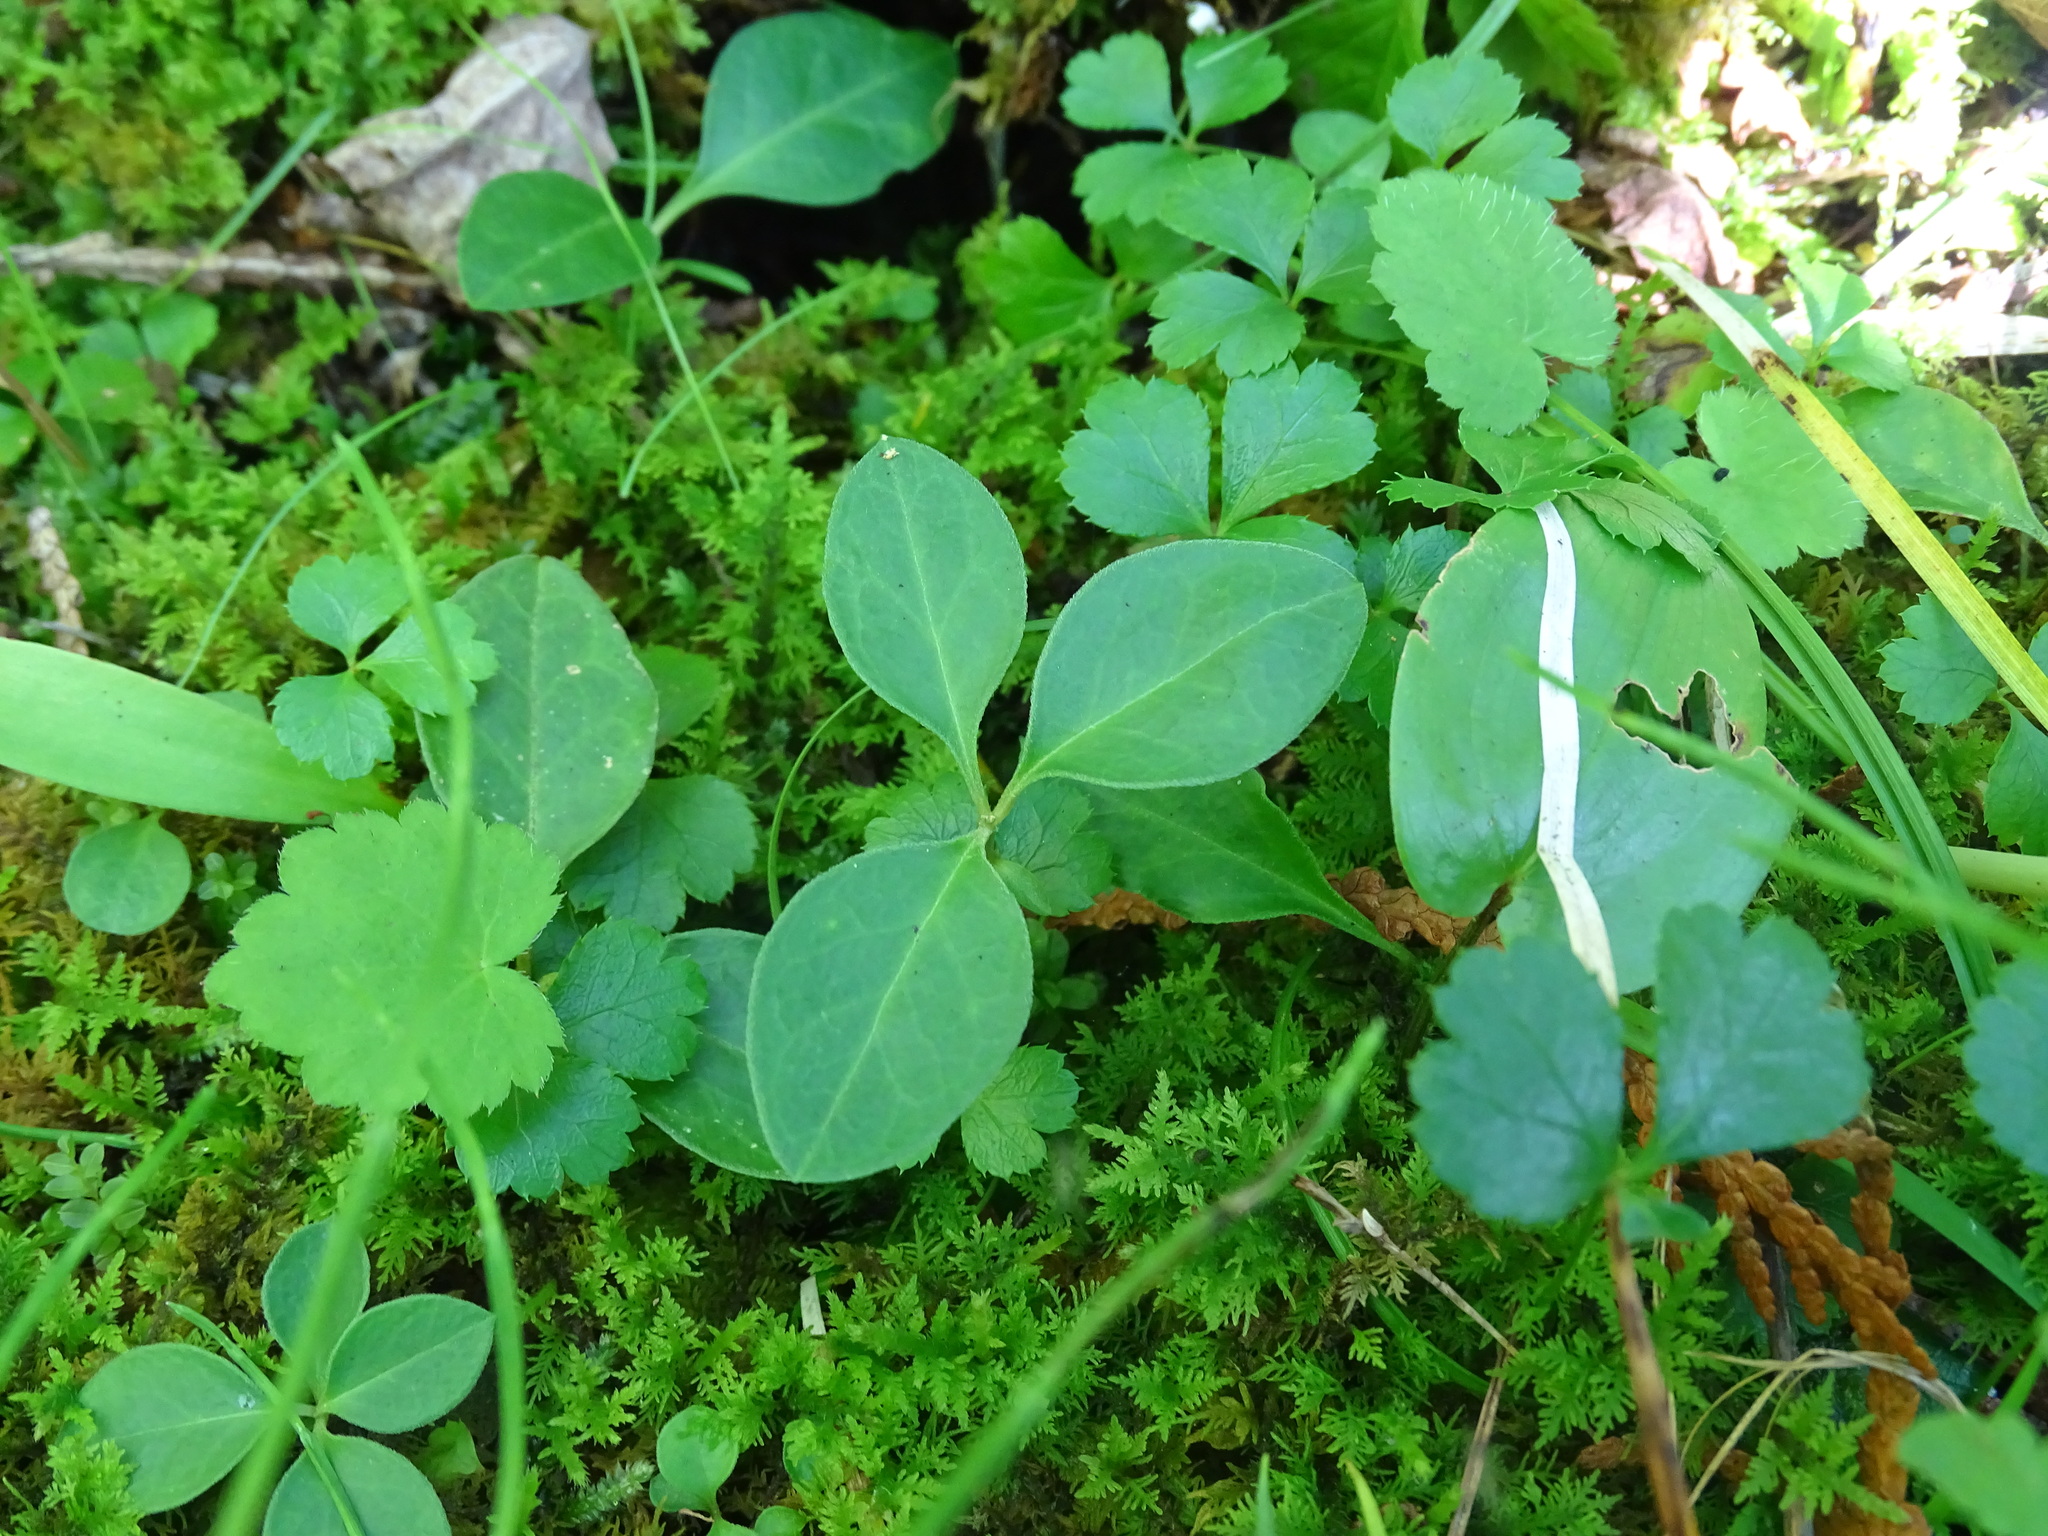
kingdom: Plantae
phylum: Tracheophyta
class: Magnoliopsida
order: Fabales
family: Polygalaceae
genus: Polygaloides
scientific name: Polygaloides paucifolia
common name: Bird-on-the-wing
